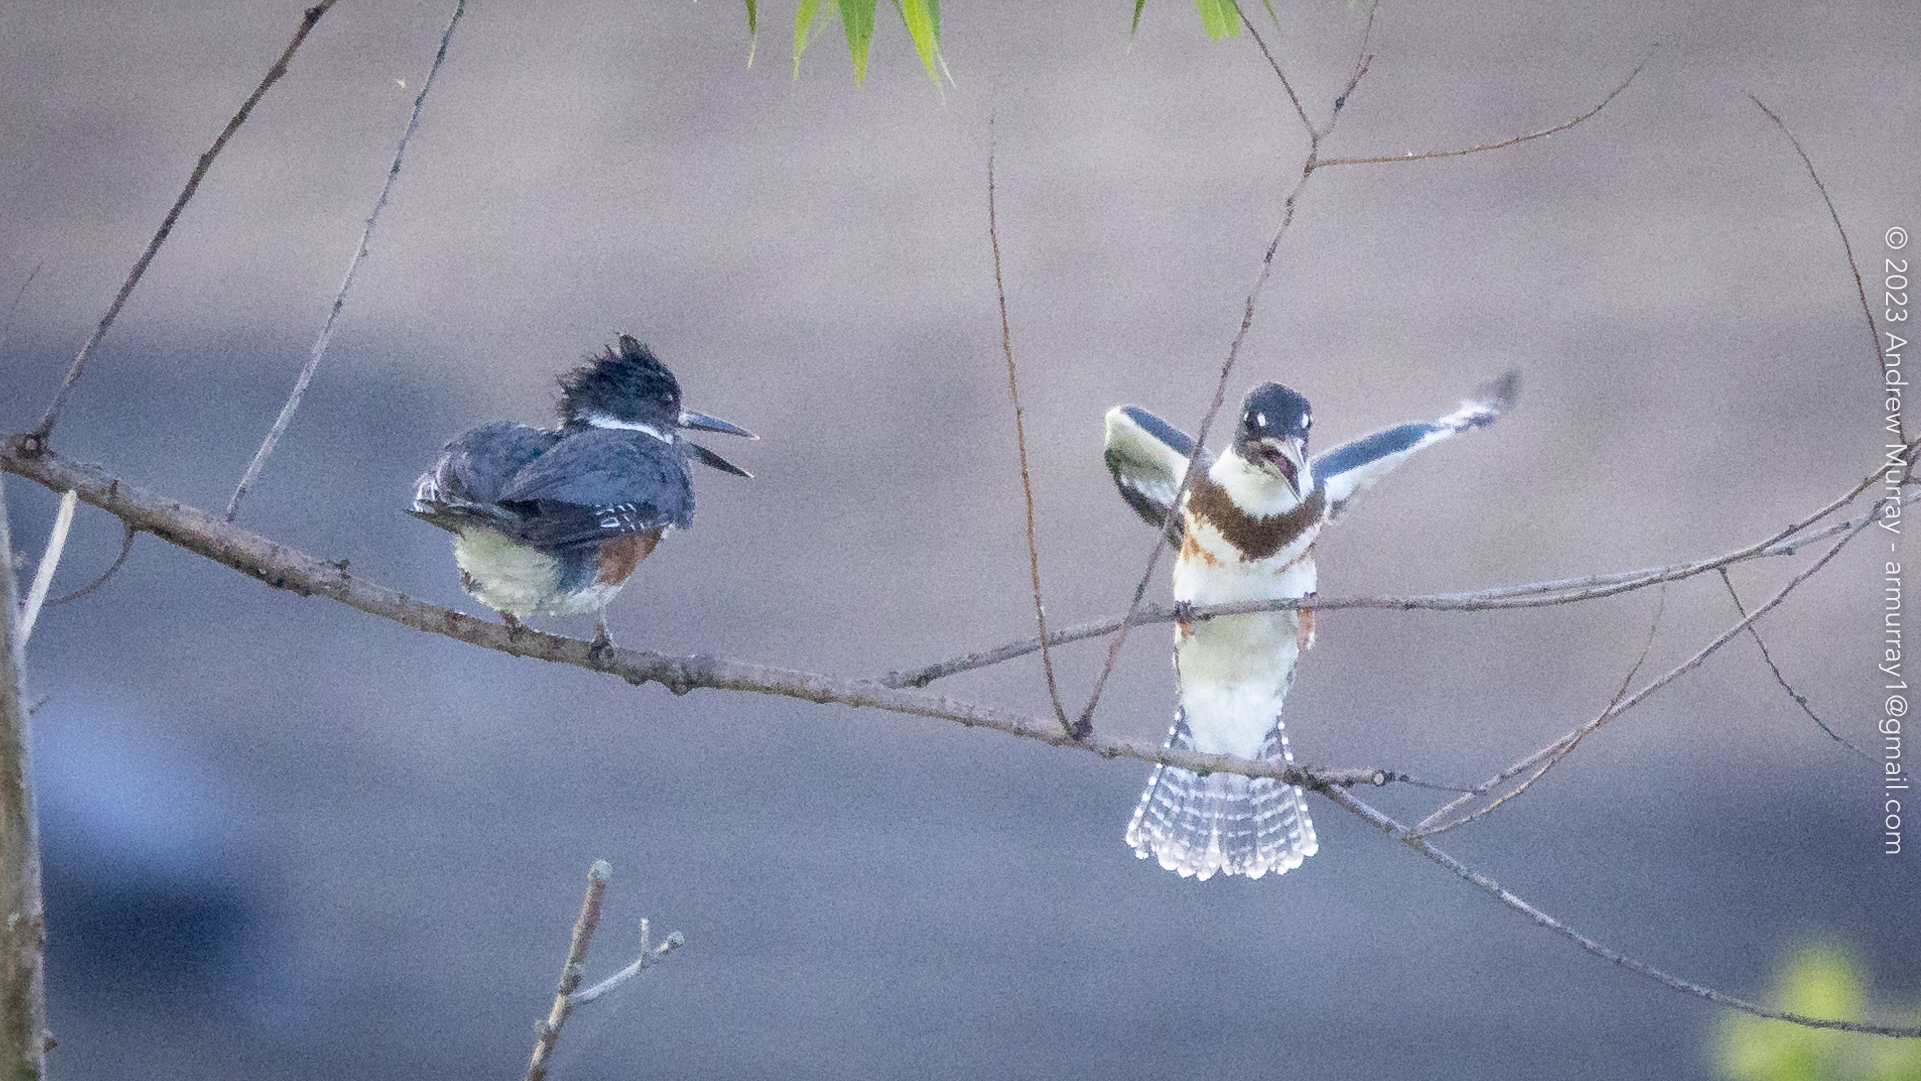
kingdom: Animalia
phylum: Chordata
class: Aves
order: Coraciiformes
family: Alcedinidae
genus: Megaceryle
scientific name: Megaceryle alcyon
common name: Belted kingfisher
